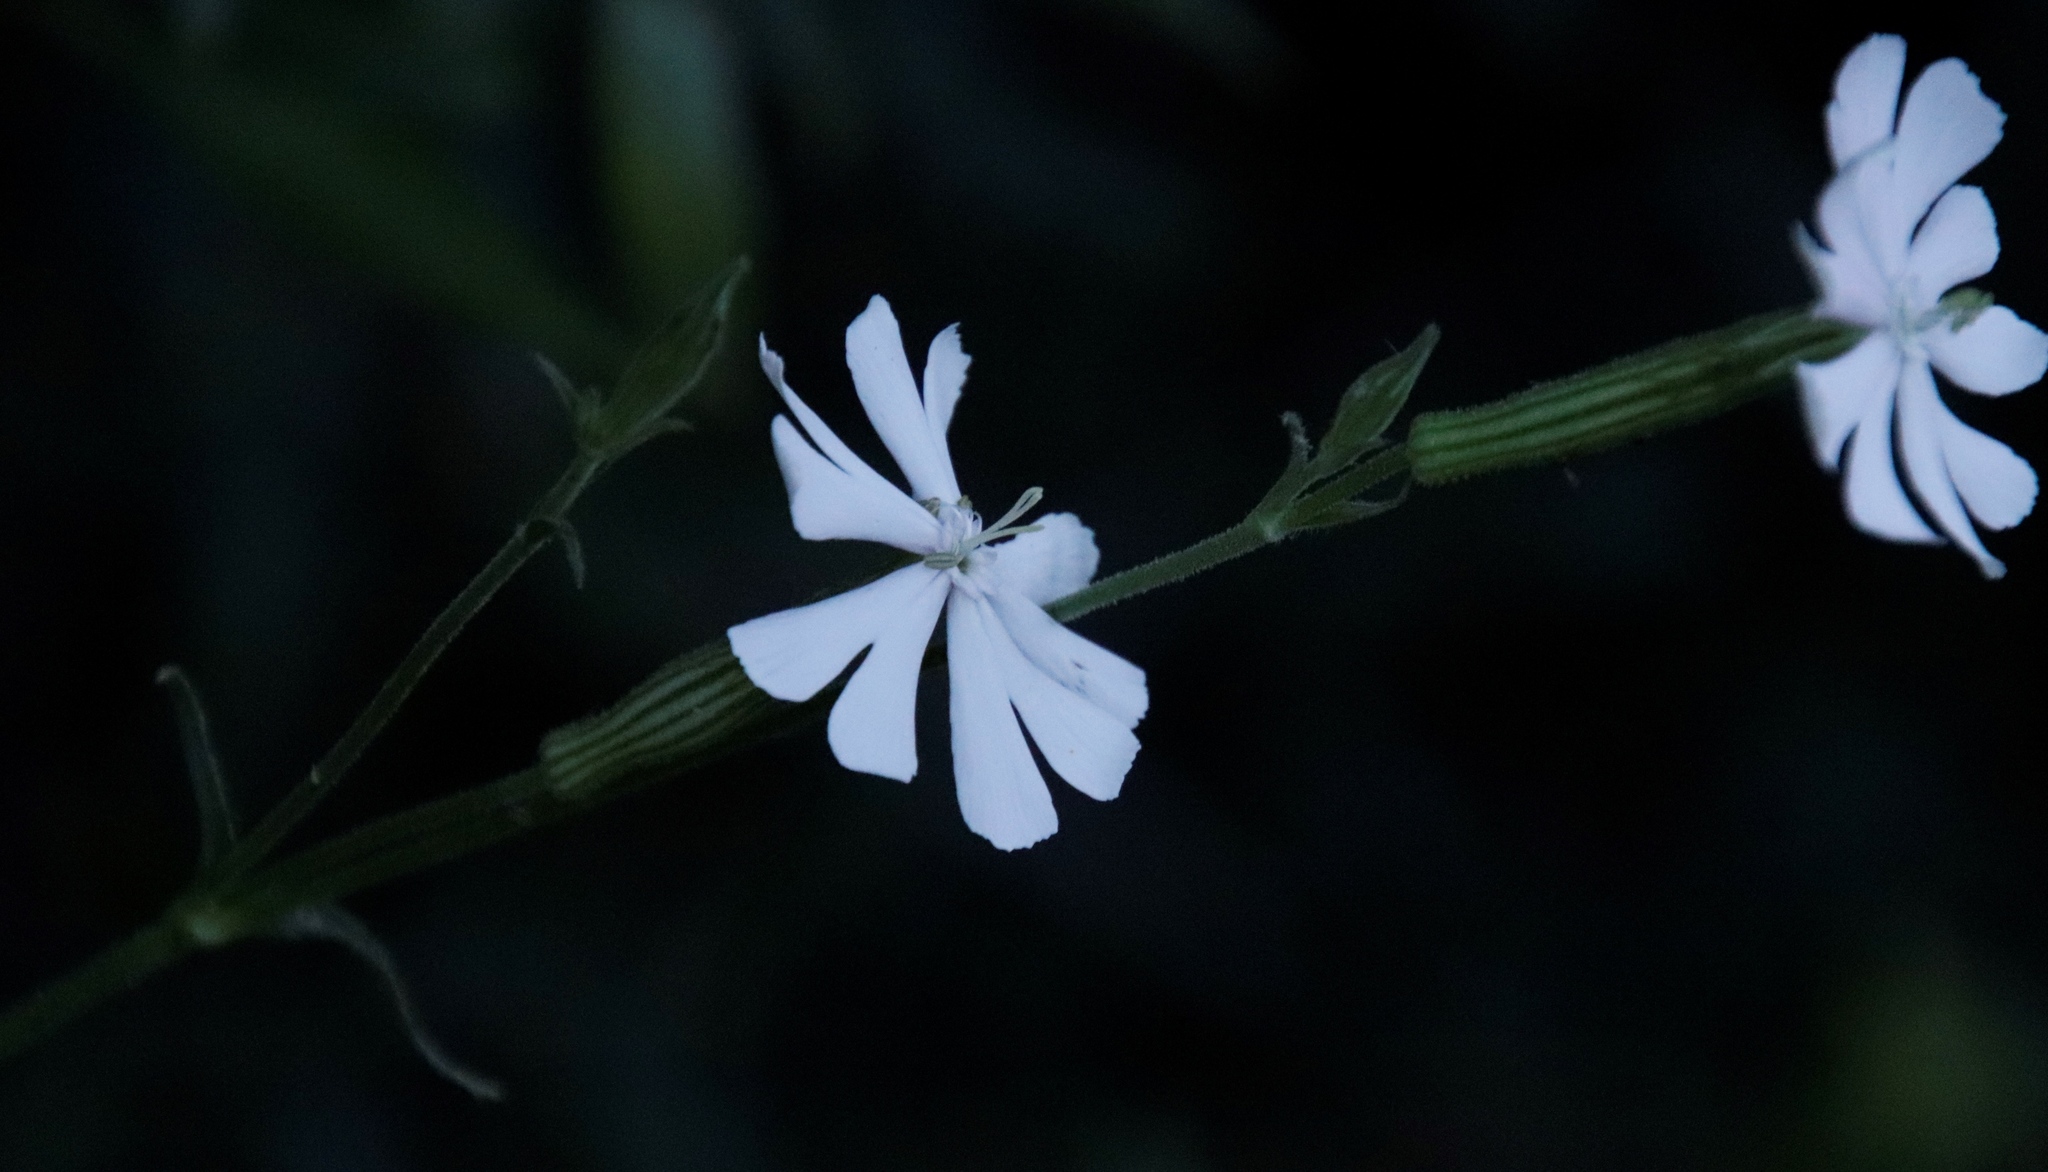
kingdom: Plantae
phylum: Tracheophyta
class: Magnoliopsida
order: Caryophyllales
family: Caryophyllaceae
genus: Silene
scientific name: Silene undulata
